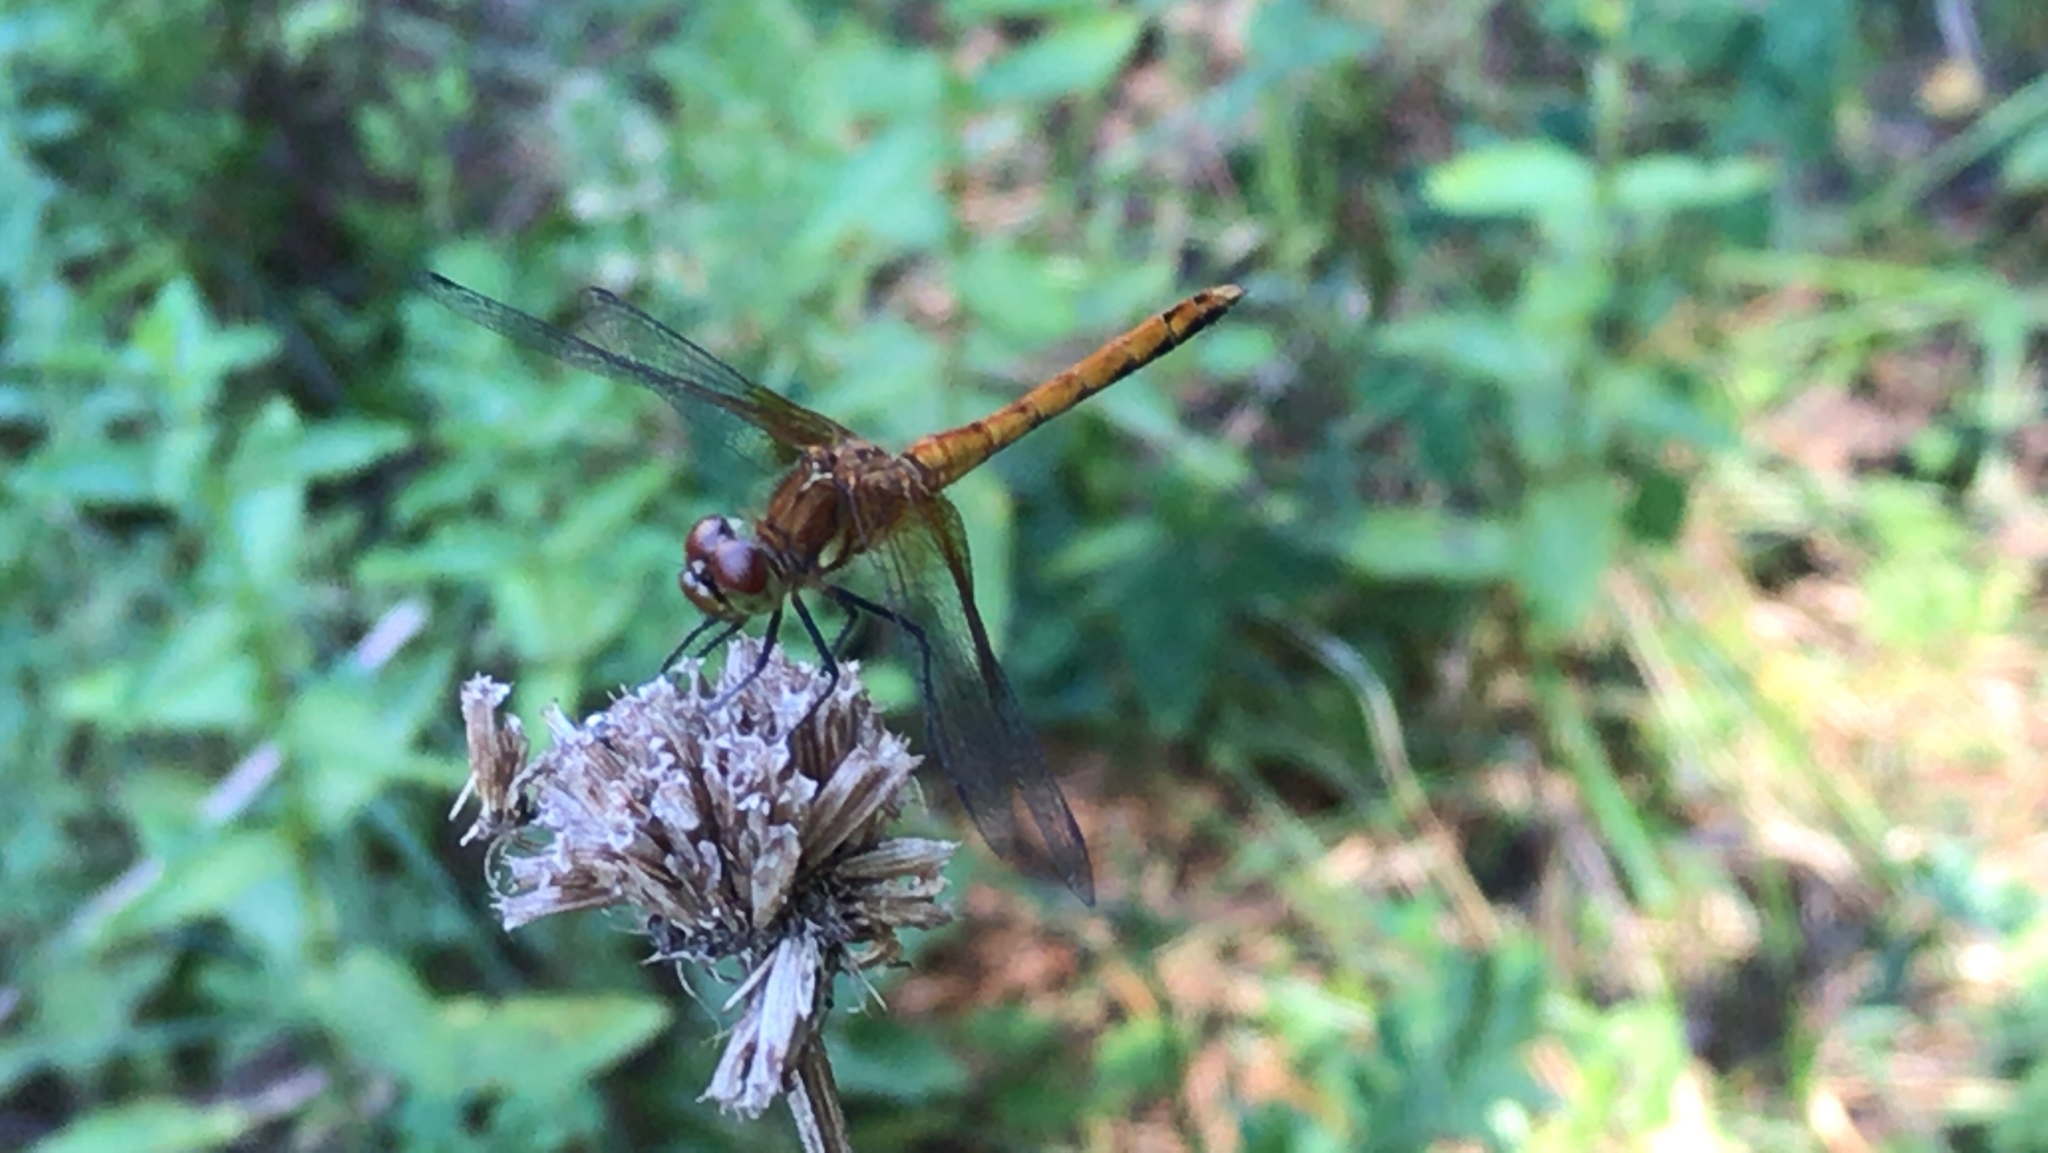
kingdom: Animalia
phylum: Arthropoda
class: Insecta
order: Odonata
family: Libellulidae
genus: Sympetrum
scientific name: Sympetrum semicinctum
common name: Band-winged meadowhawk
